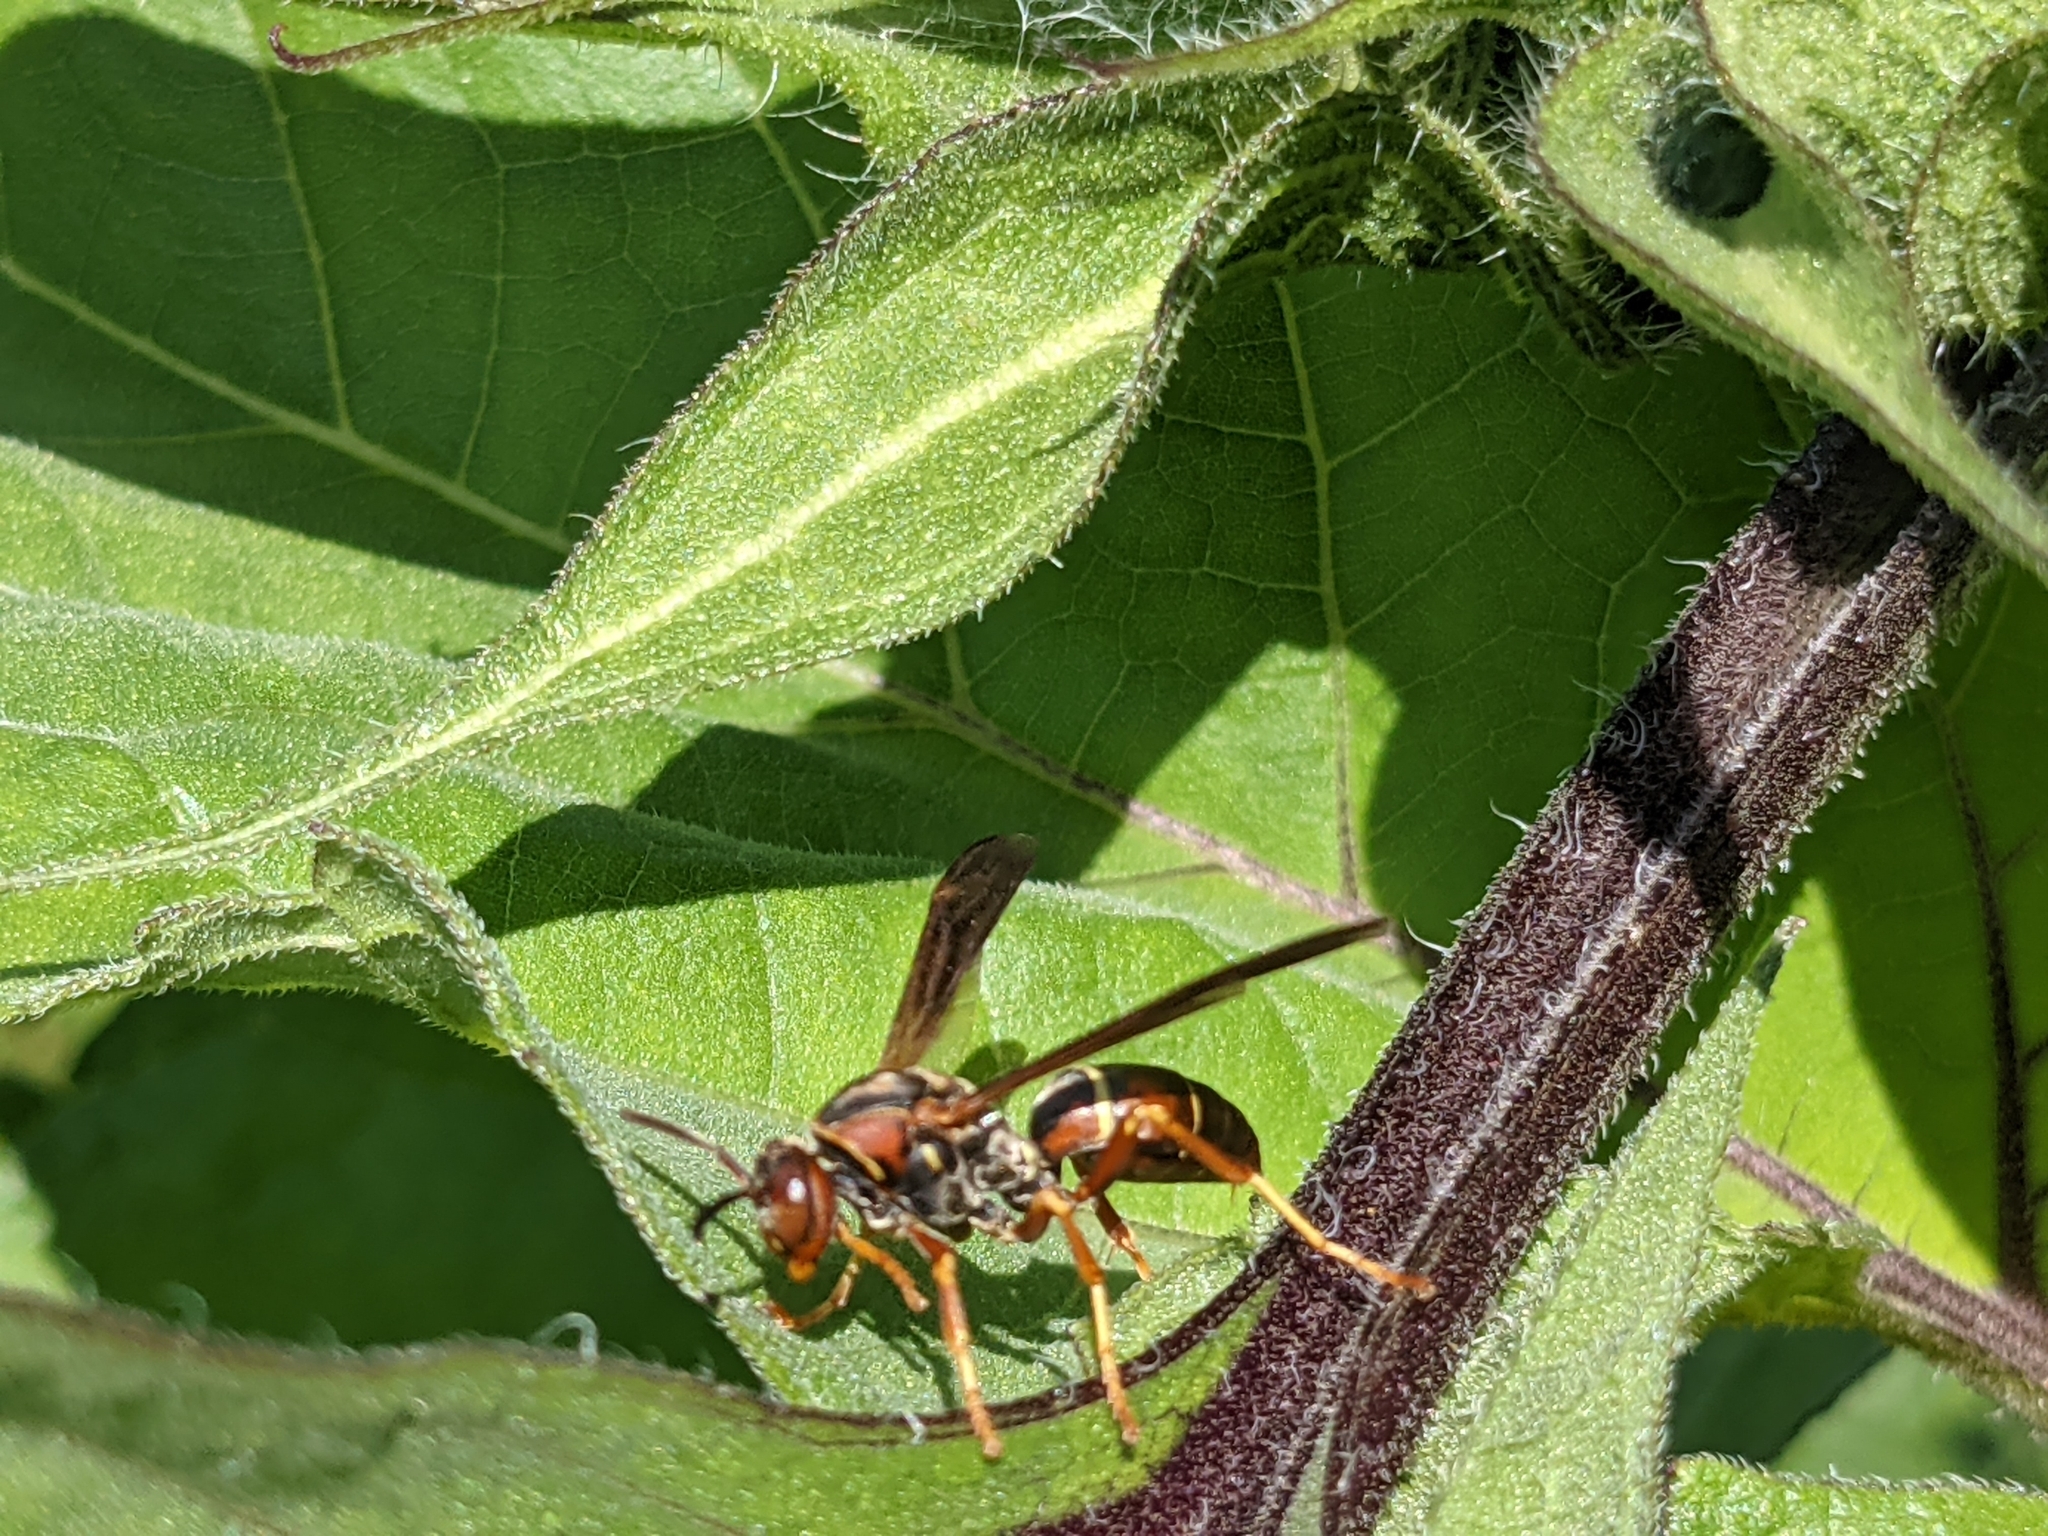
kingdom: Animalia
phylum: Arthropoda
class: Insecta
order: Hymenoptera
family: Eumenidae
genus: Polistes
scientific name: Polistes fuscatus
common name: Dark paper wasp
